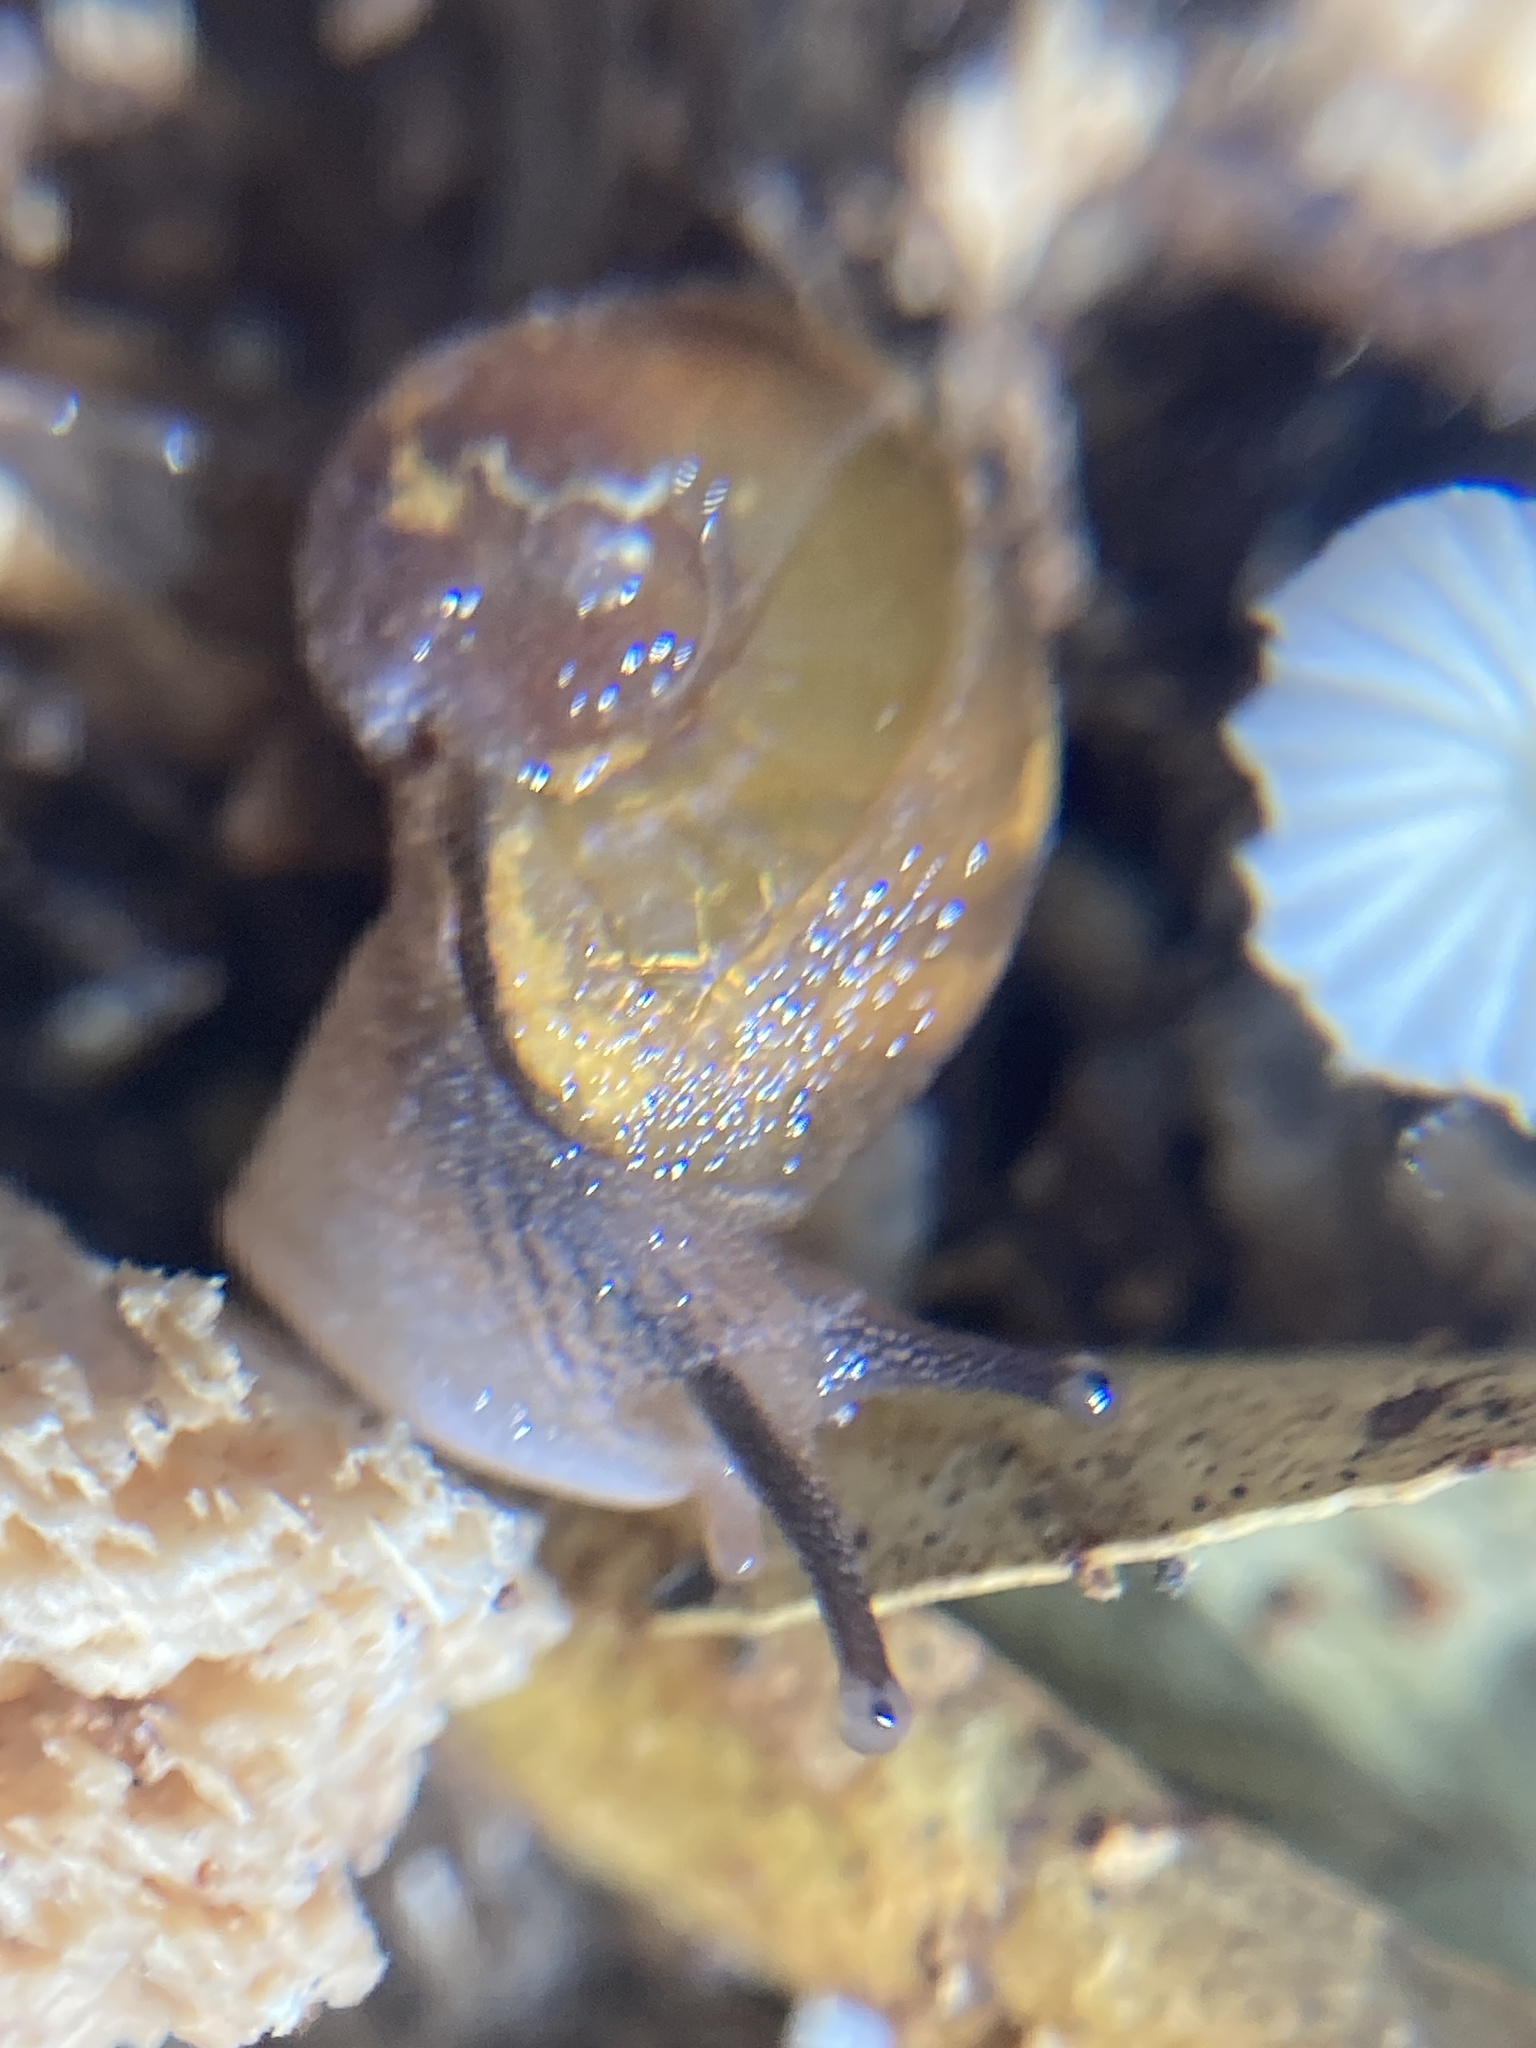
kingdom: Animalia
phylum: Mollusca
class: Gastropoda
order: Stylommatophora
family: Helicarionidae
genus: Helicarion
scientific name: Helicarion mastersi
